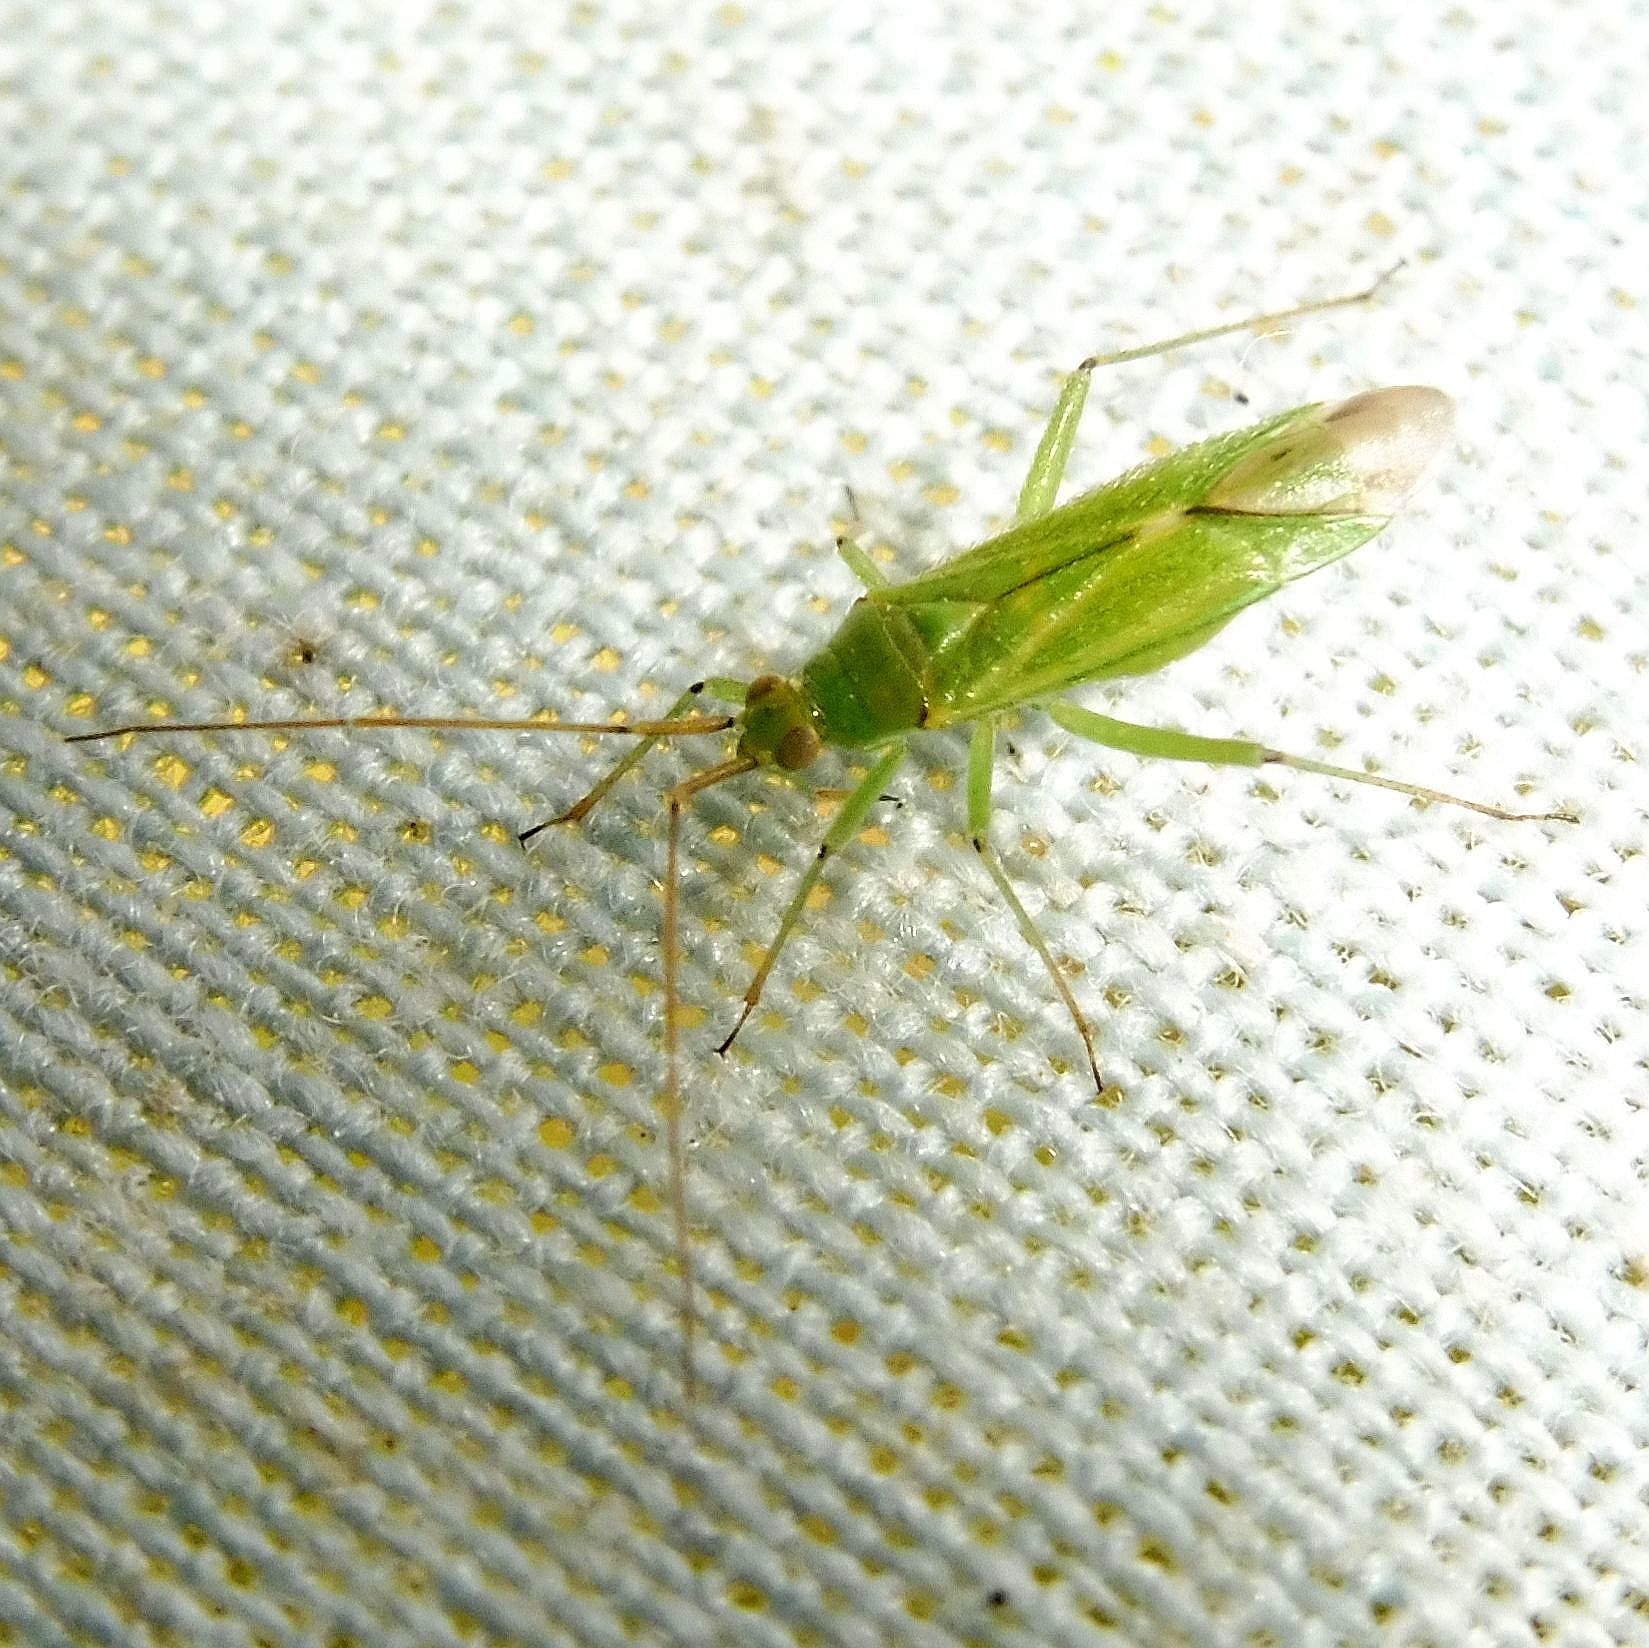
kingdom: Animalia
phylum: Arthropoda
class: Insecta
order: Hemiptera
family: Miridae
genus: Blepharidopterus
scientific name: Blepharidopterus angulatus
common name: Plant bug
